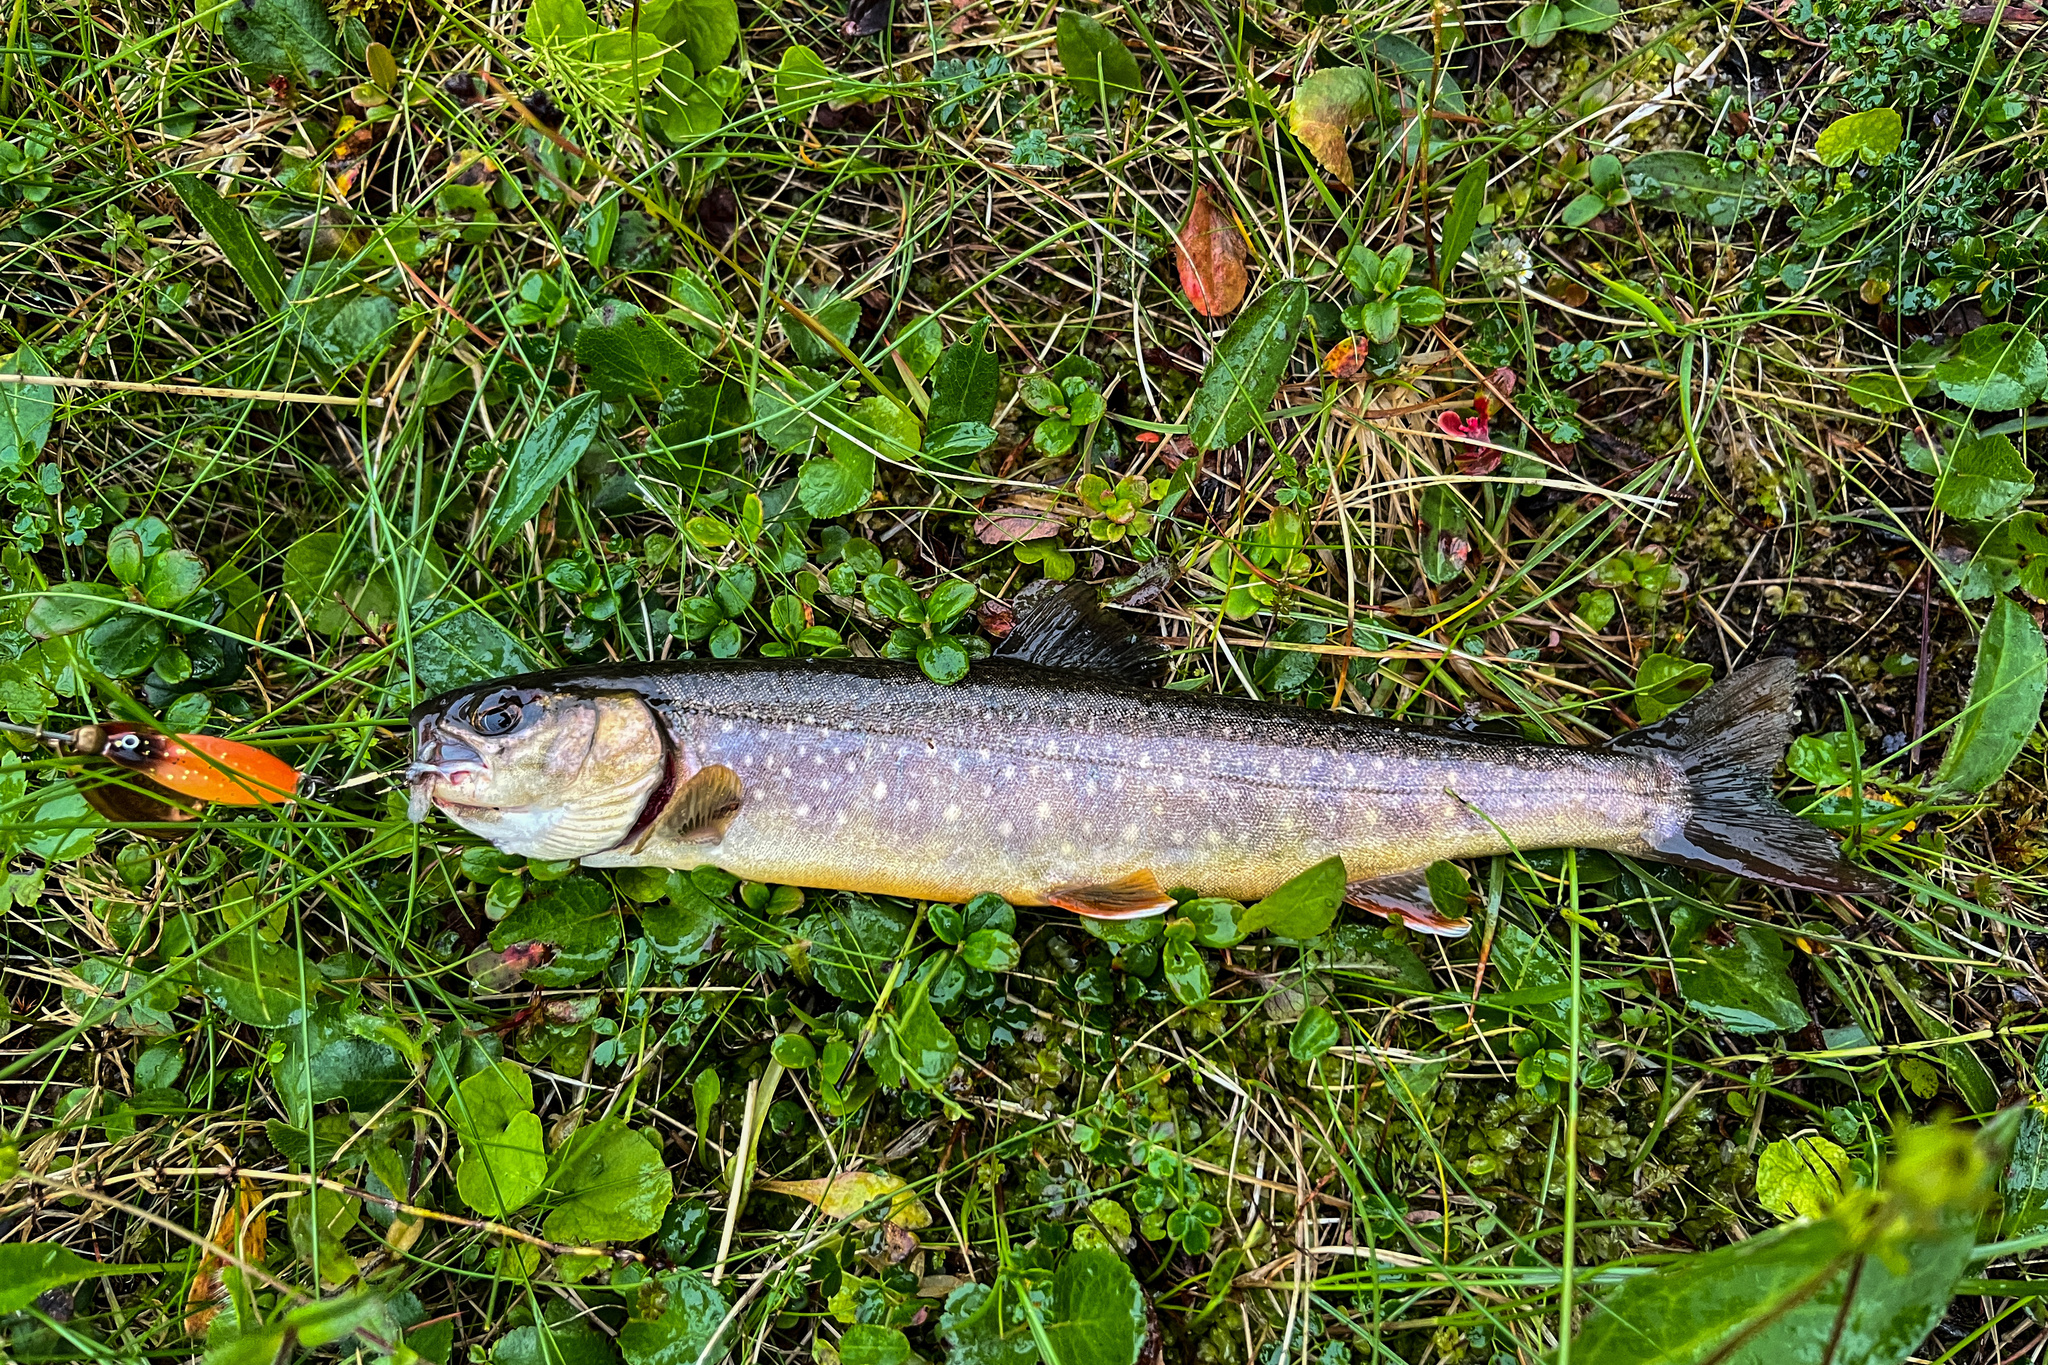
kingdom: Animalia
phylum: Chordata
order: Salmoniformes
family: Salmonidae
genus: Salvelinus
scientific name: Salvelinus alpinus
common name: Charr
